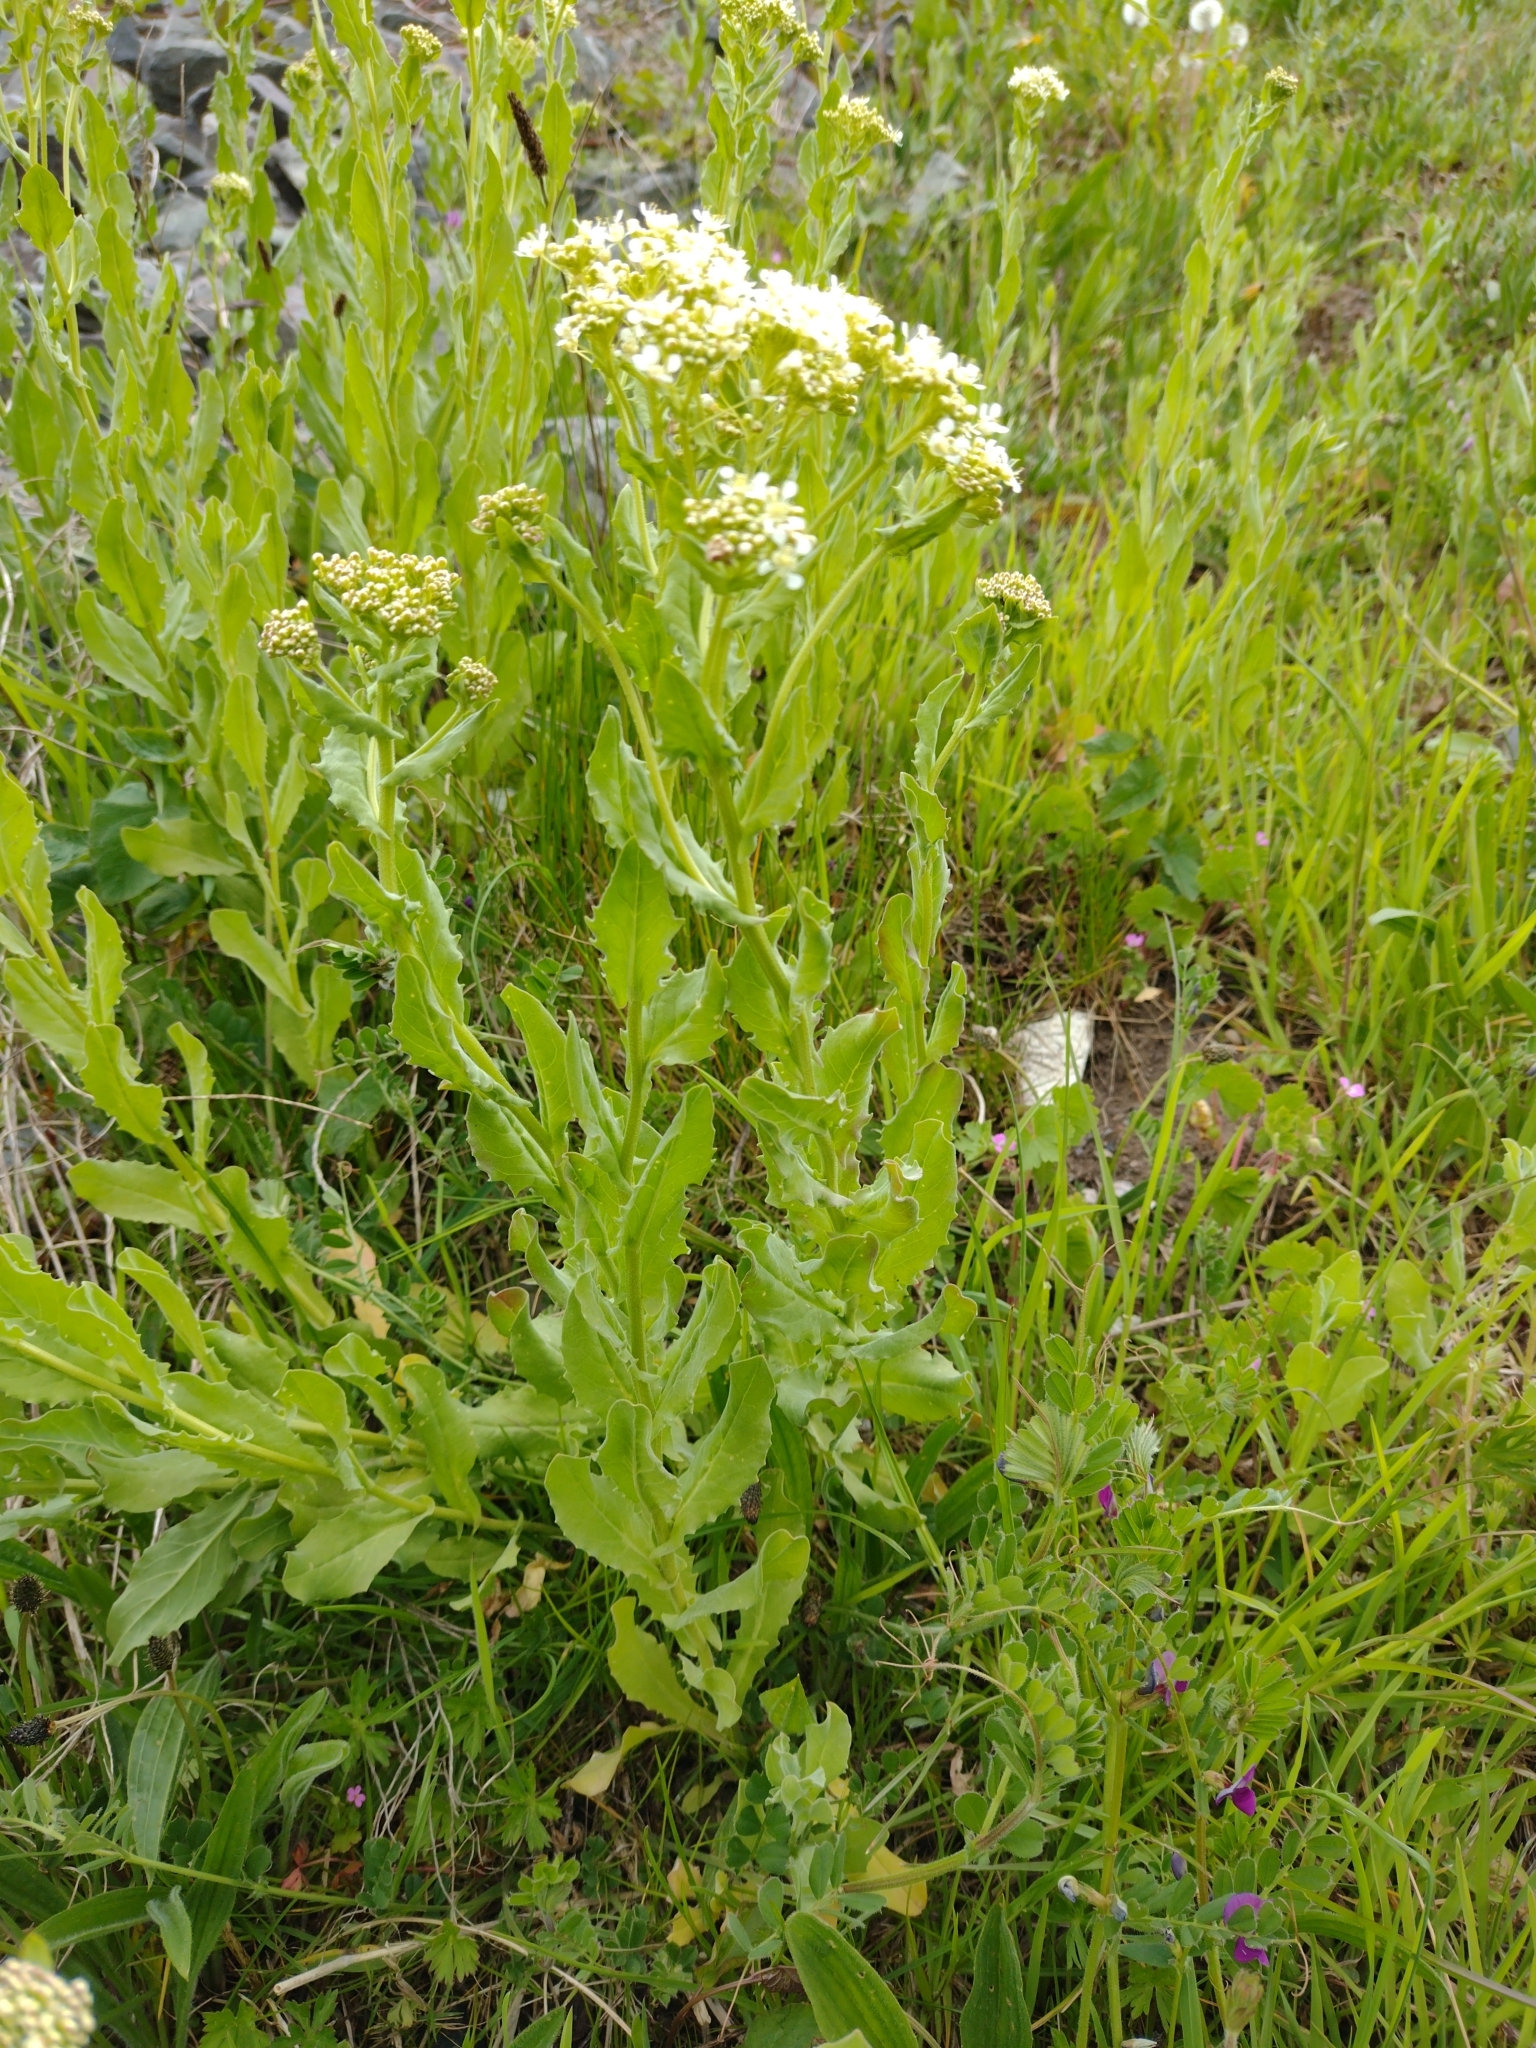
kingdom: Plantae
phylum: Tracheophyta
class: Magnoliopsida
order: Brassicales
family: Brassicaceae
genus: Lepidium
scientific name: Lepidium draba
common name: Hoary cress
